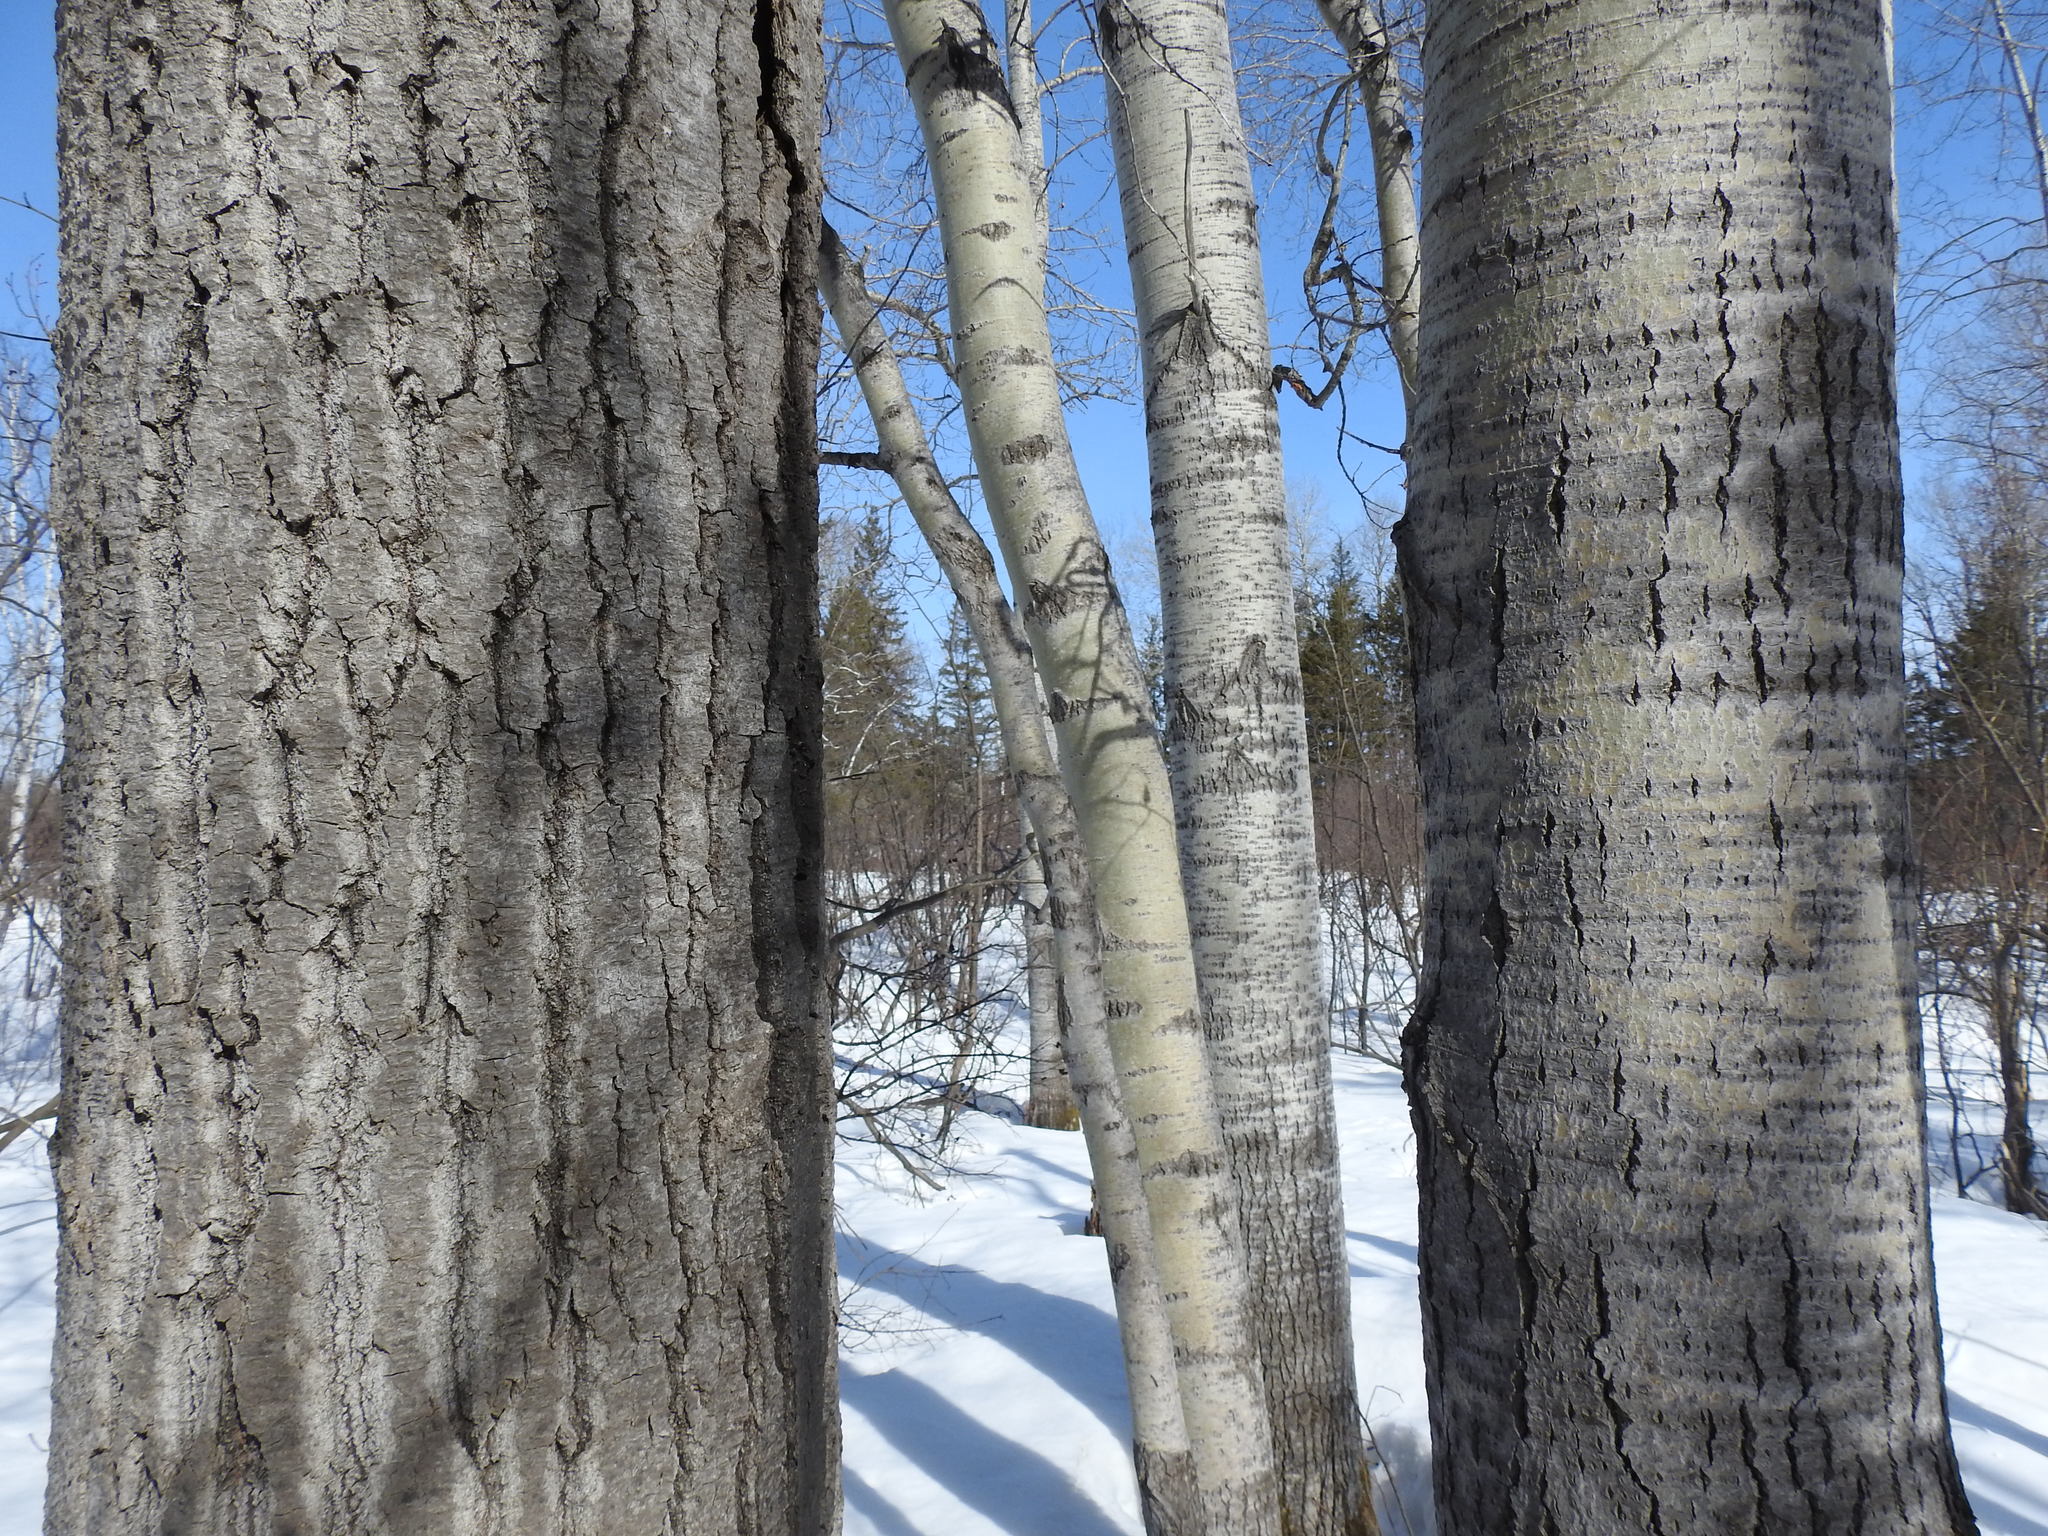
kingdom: Plantae
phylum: Tracheophyta
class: Magnoliopsida
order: Malpighiales
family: Salicaceae
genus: Populus
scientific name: Populus tremuloides
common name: Quaking aspen
